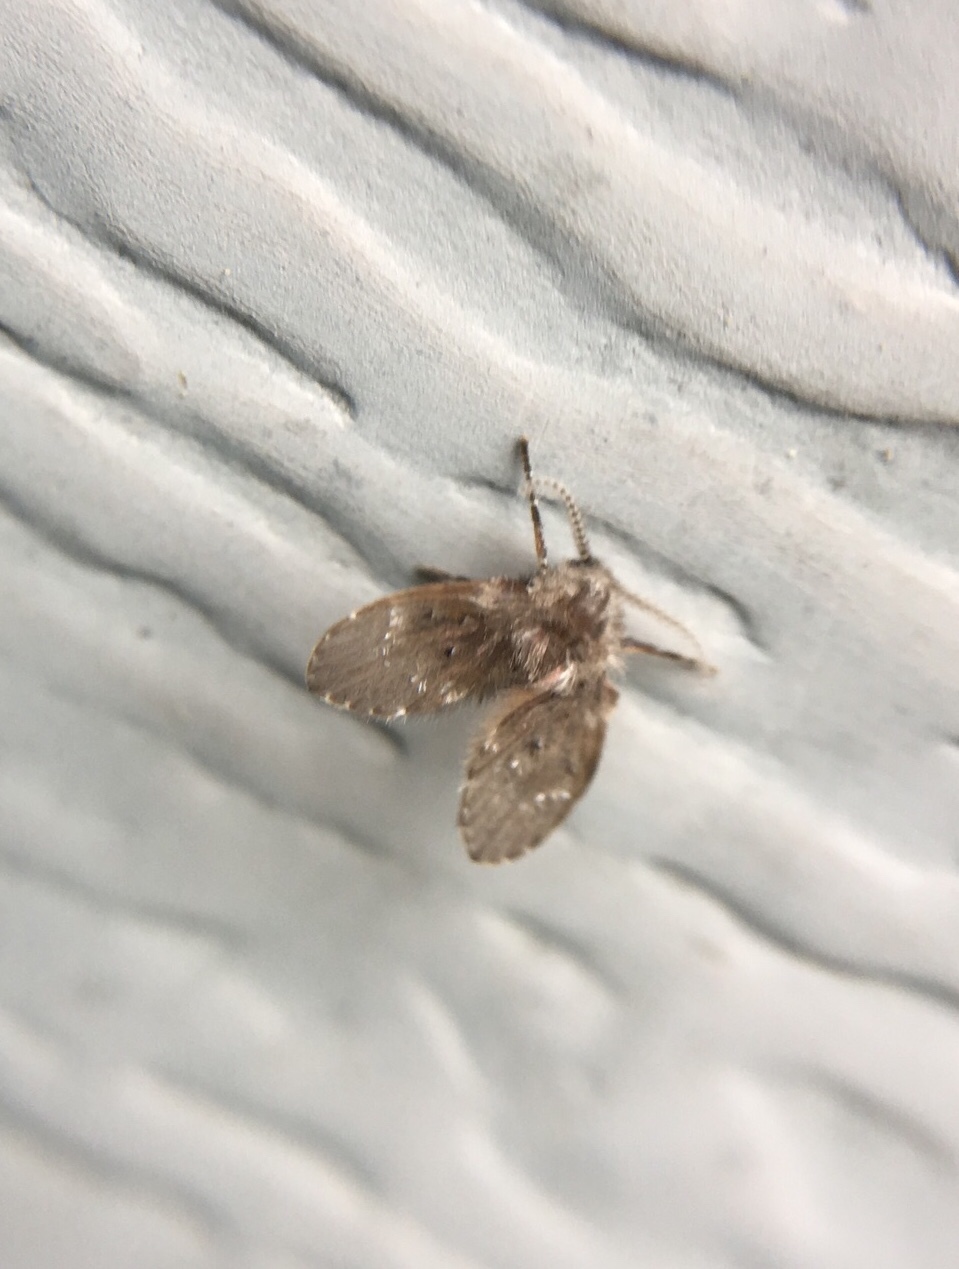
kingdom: Animalia
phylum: Arthropoda
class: Insecta
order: Diptera
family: Psychodidae
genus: Clogmia
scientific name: Clogmia albipunctatus
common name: White-spotted moth fly
